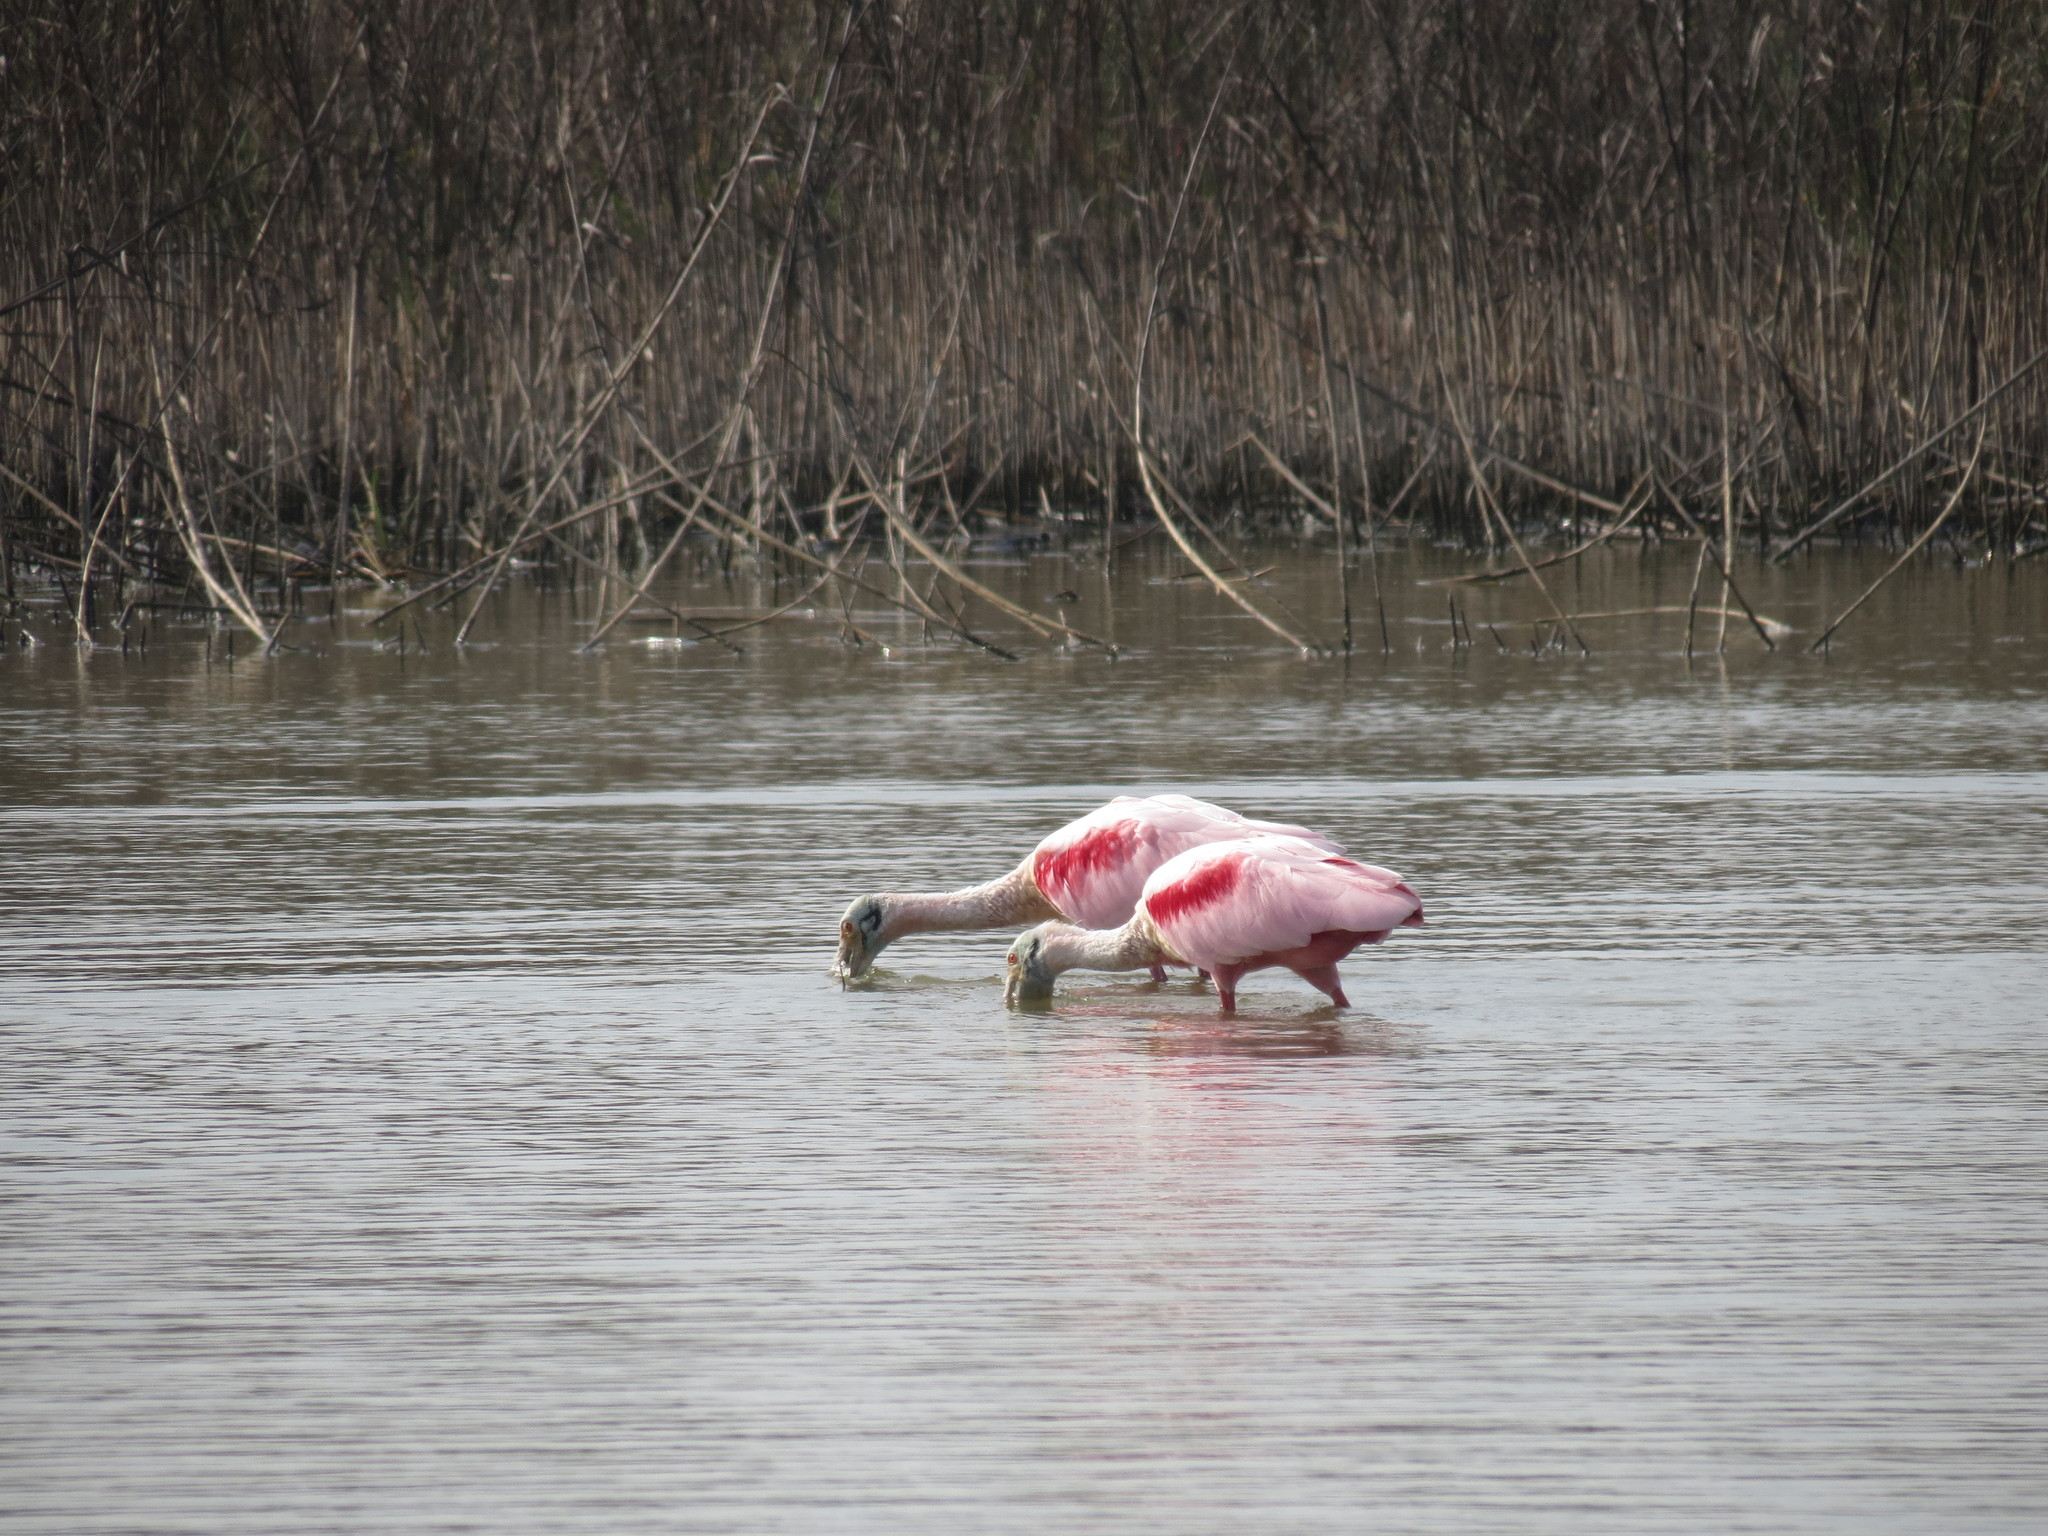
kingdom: Animalia
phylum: Chordata
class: Aves
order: Pelecaniformes
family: Threskiornithidae
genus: Platalea
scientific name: Platalea ajaja
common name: Roseate spoonbill
